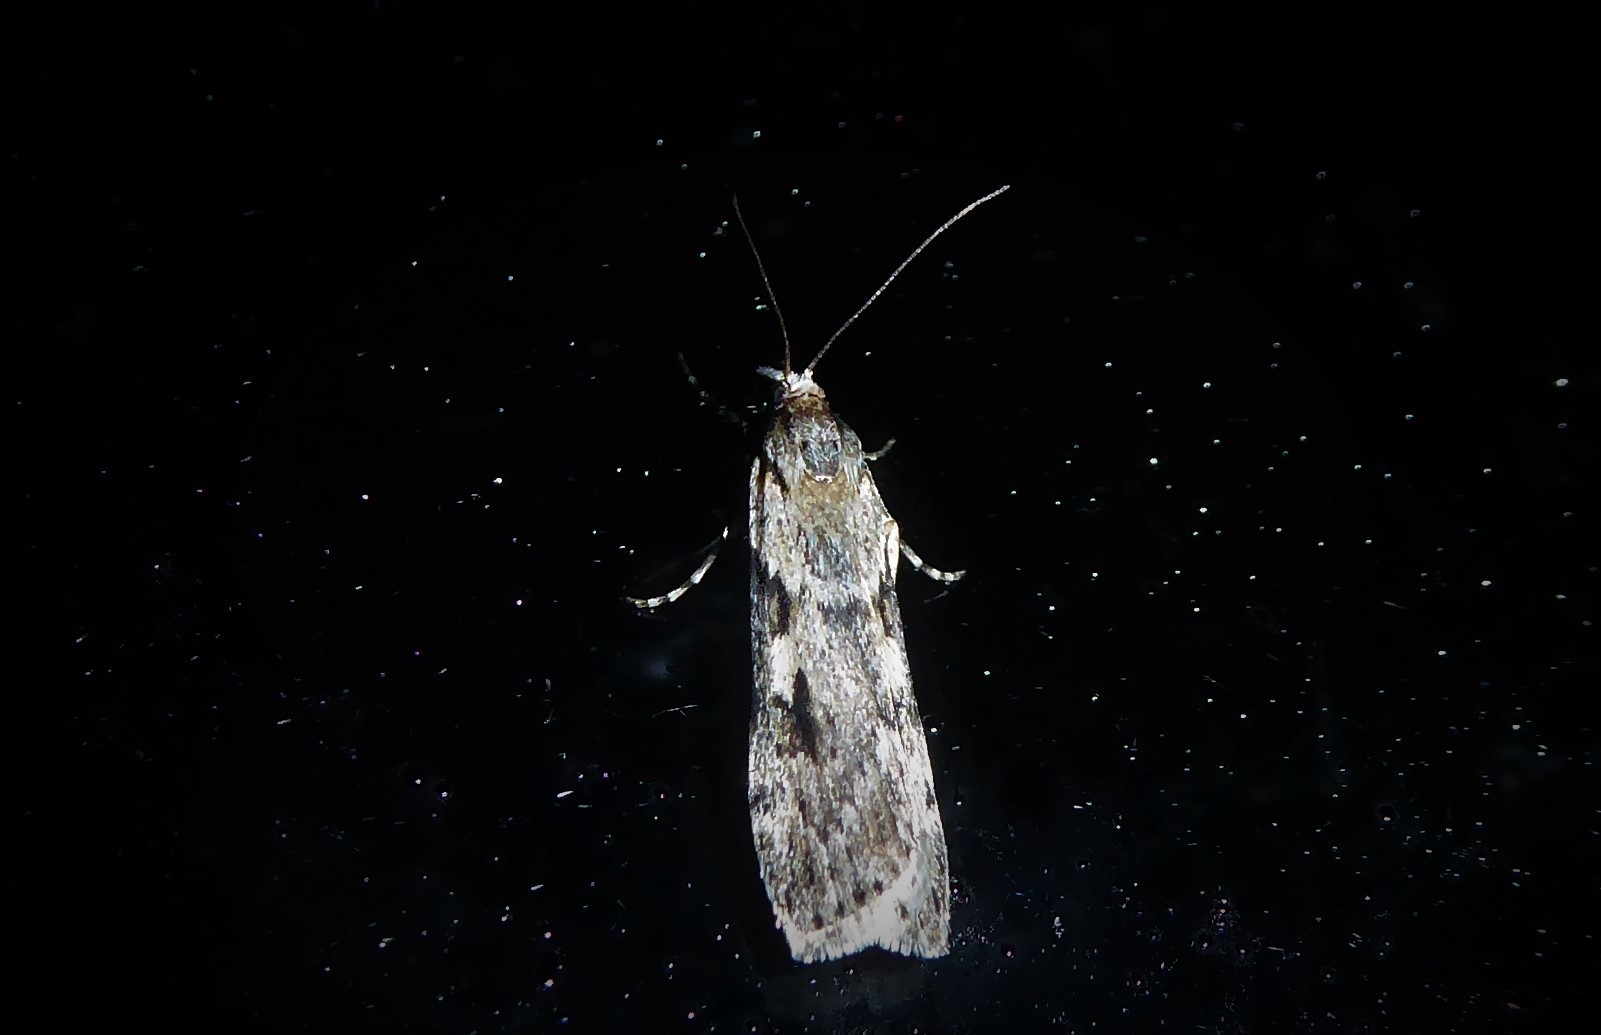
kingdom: Animalia
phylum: Arthropoda
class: Insecta
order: Lepidoptera
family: Crambidae
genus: Scoparia
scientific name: Scoparia halopis
